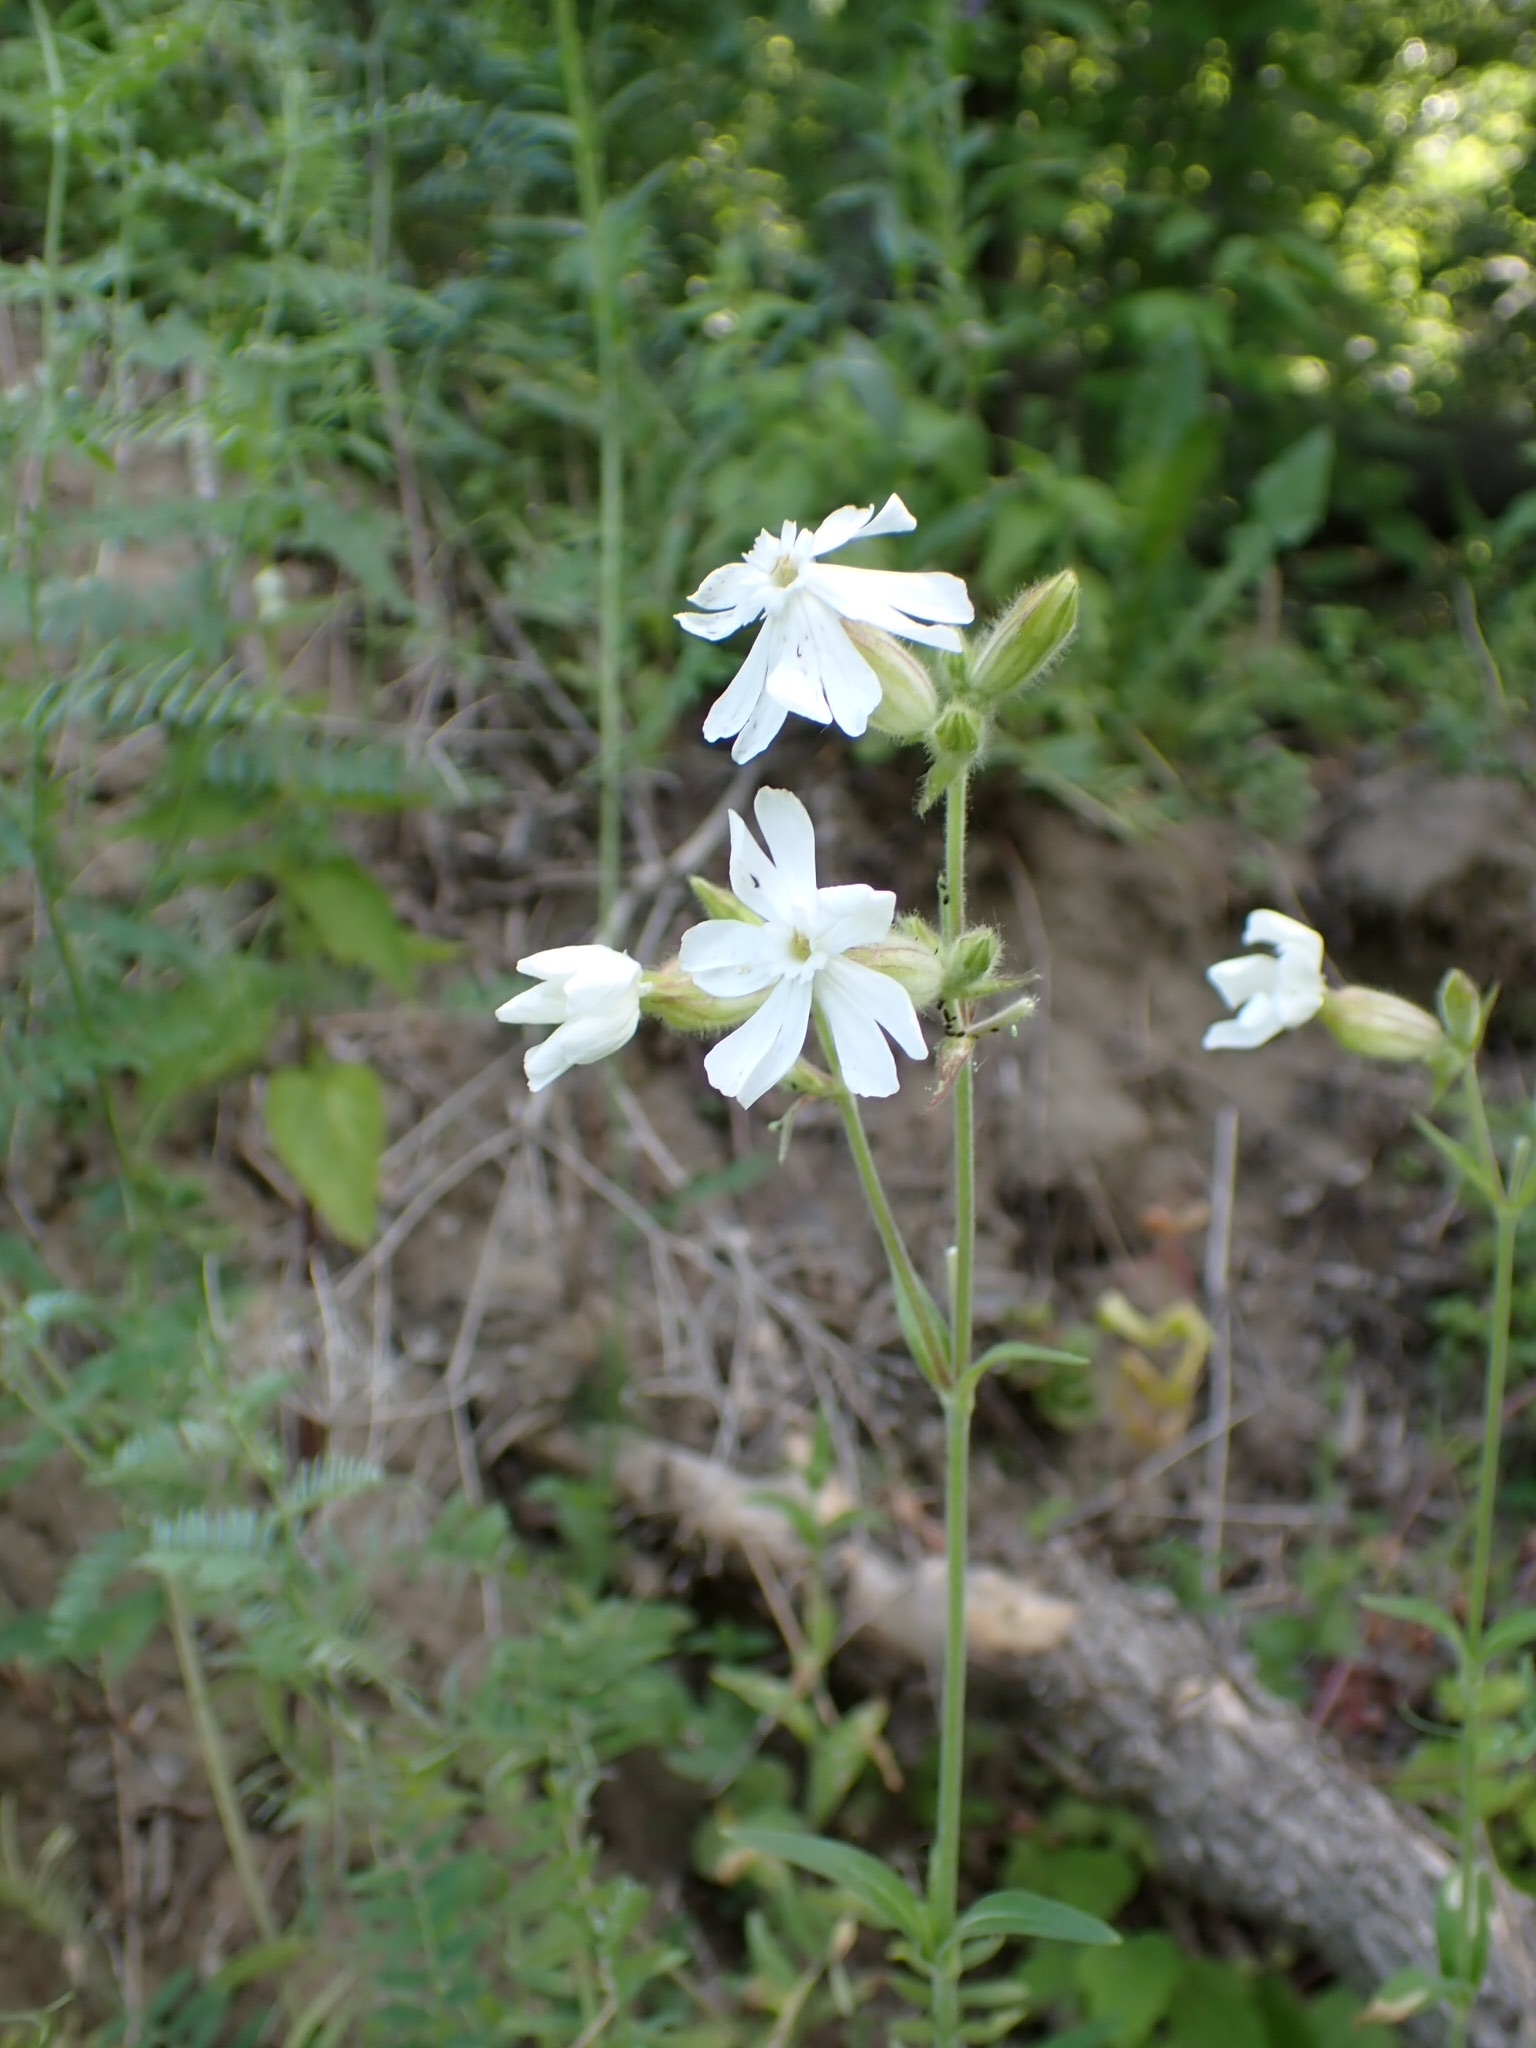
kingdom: Plantae
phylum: Tracheophyta
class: Magnoliopsida
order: Caryophyllales
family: Caryophyllaceae
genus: Silene
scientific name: Silene latifolia
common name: White campion
